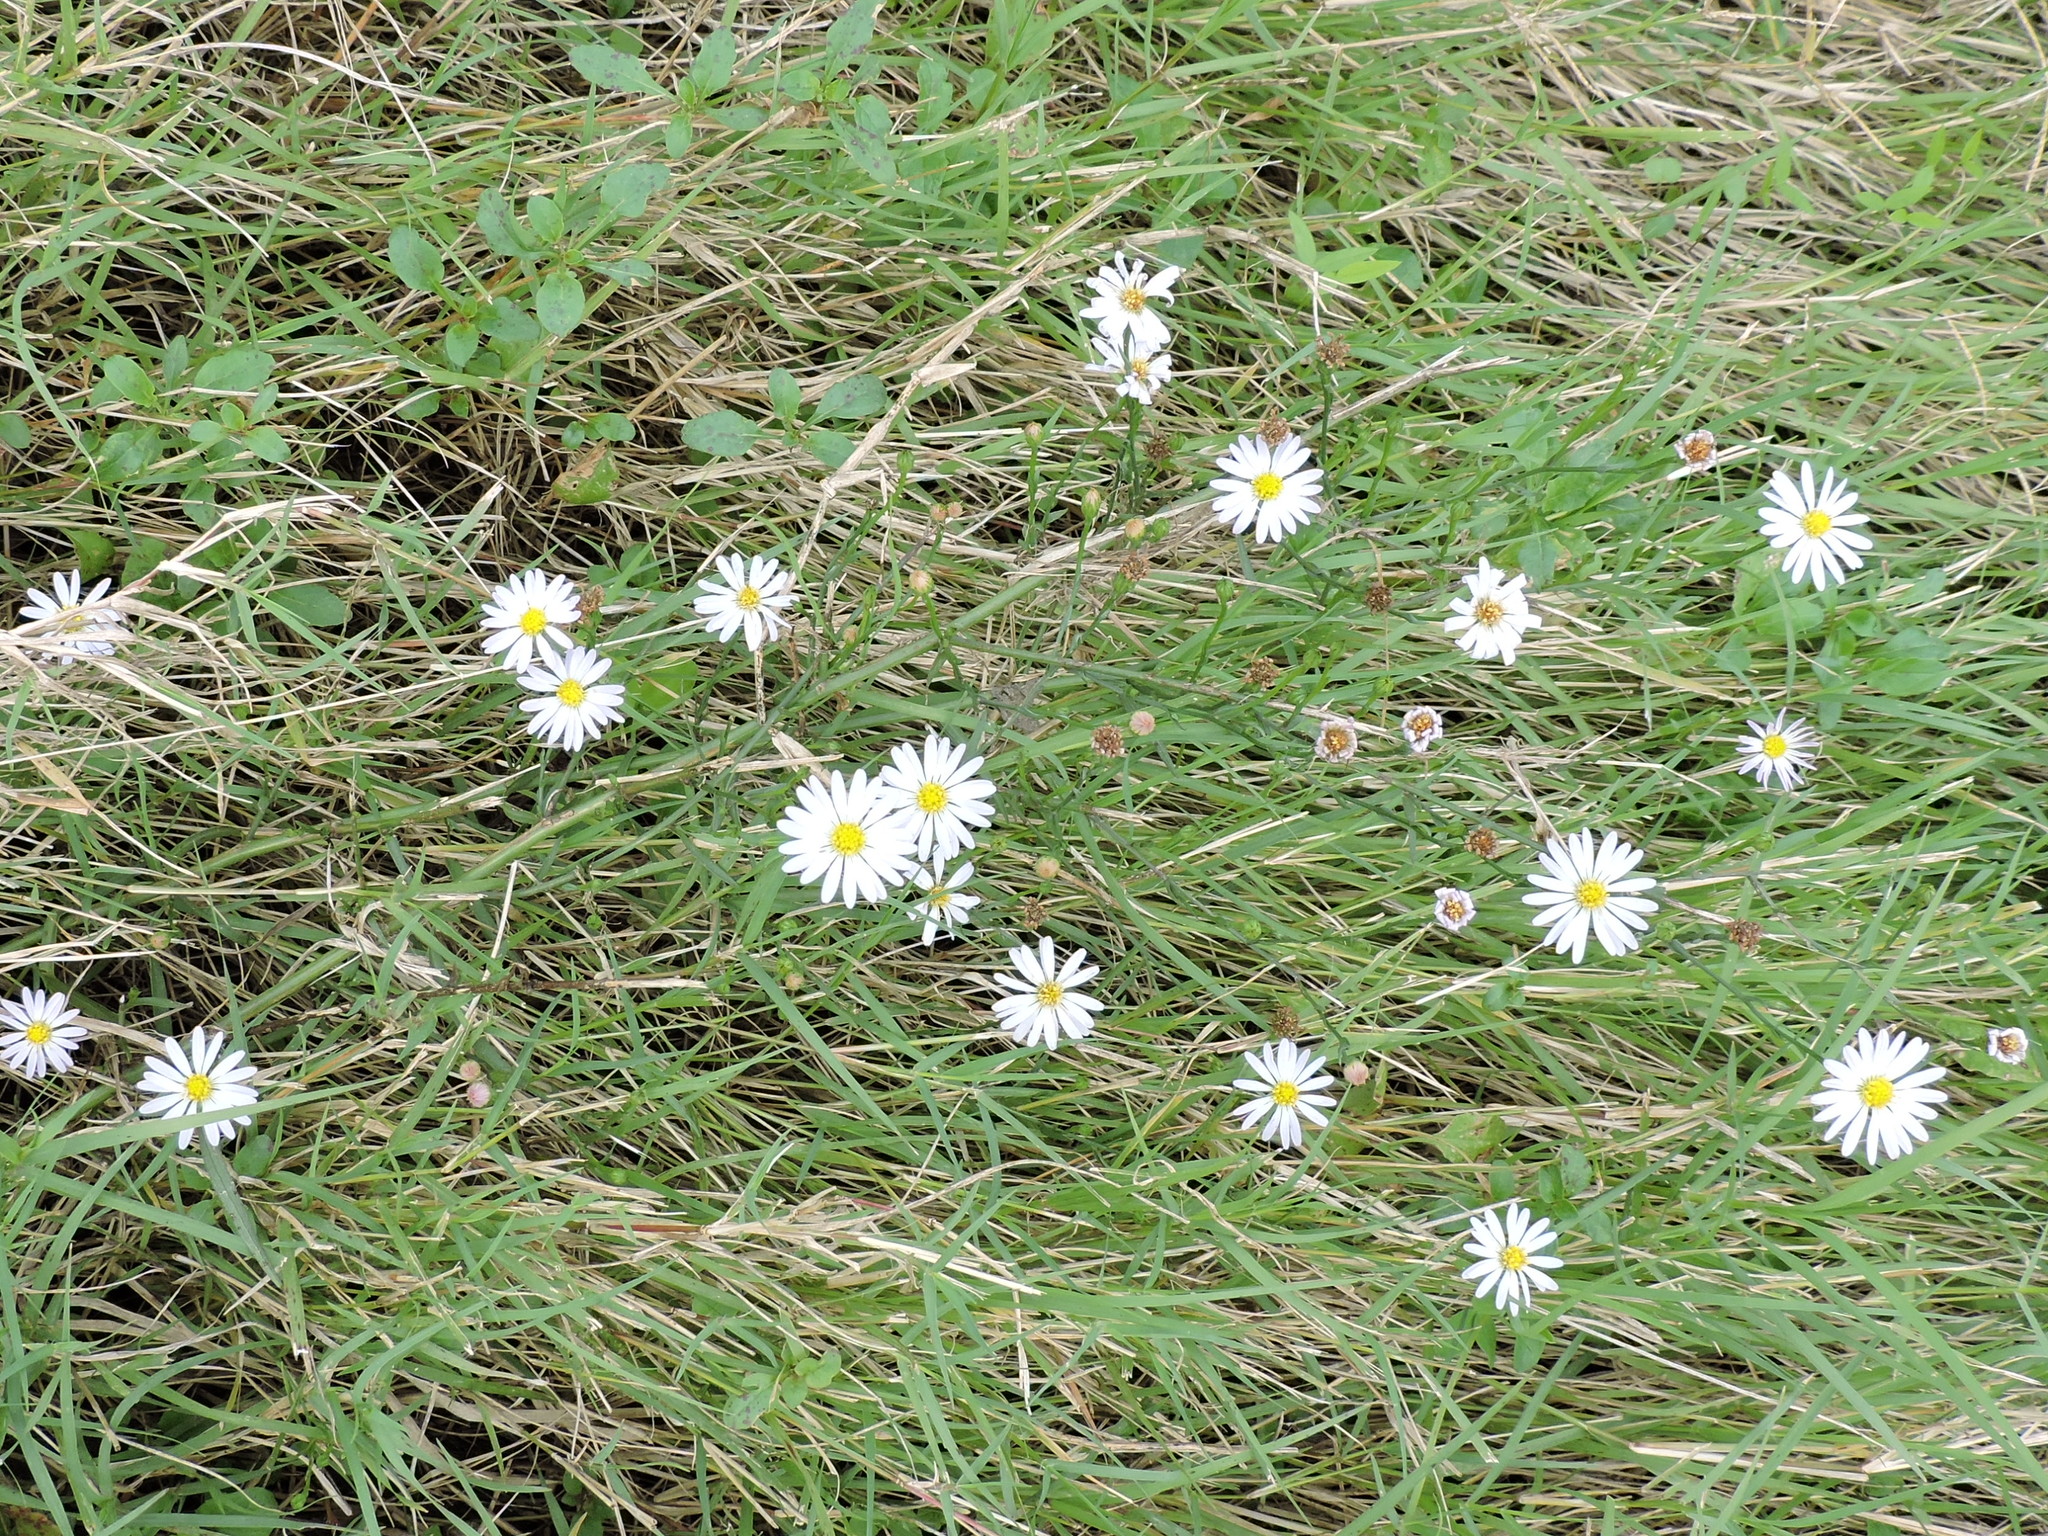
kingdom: Plantae
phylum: Tracheophyta
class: Magnoliopsida
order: Asterales
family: Asteraceae
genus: Symphyotrichum
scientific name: Symphyotrichum divaricatum
